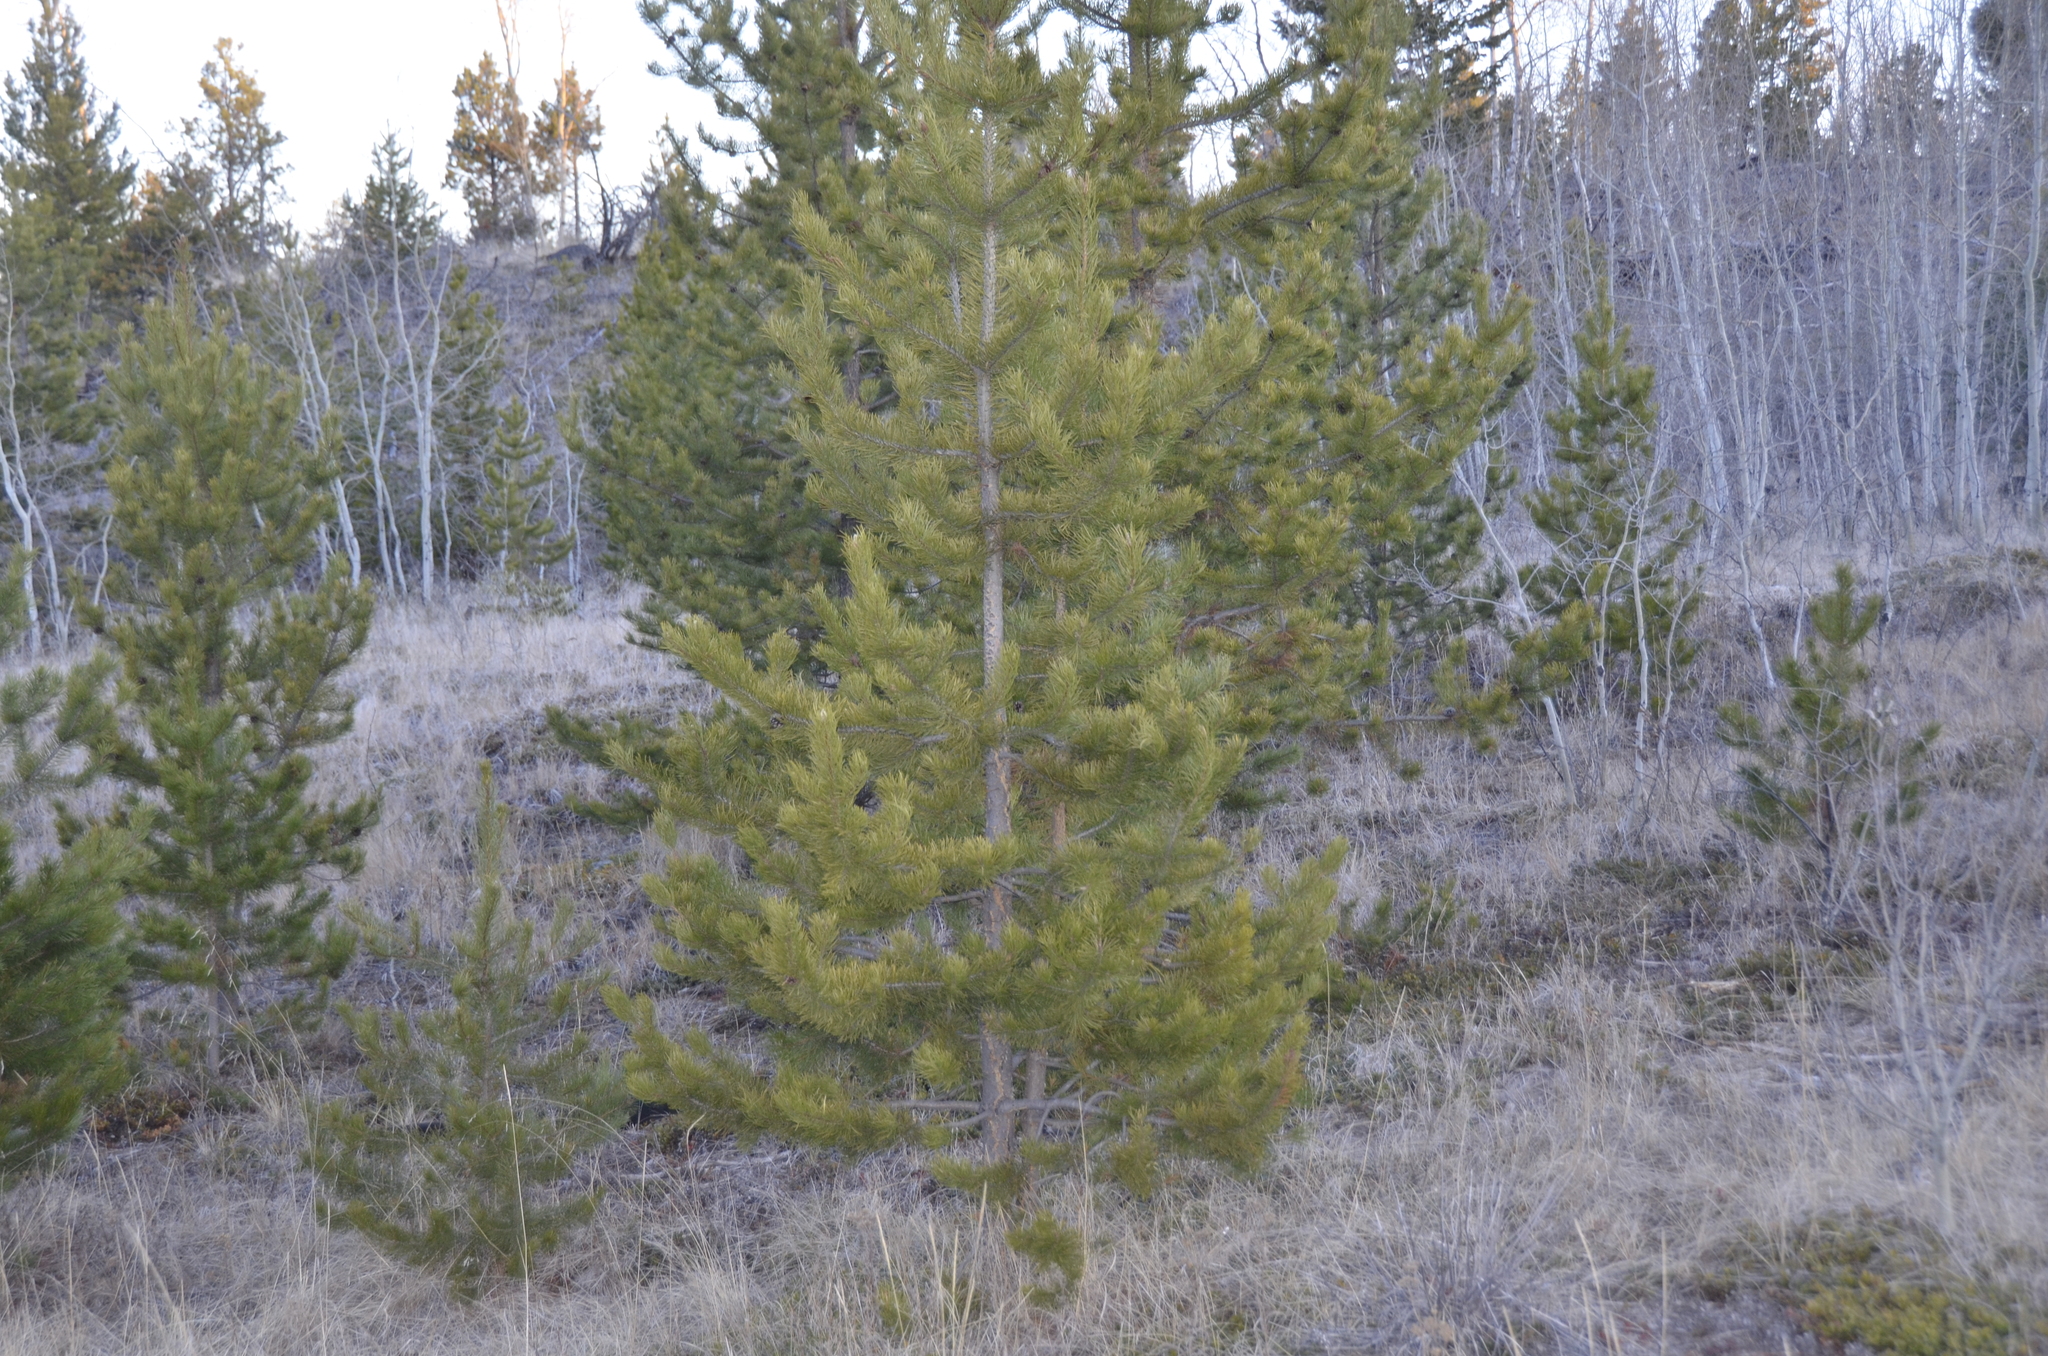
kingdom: Plantae
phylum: Tracheophyta
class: Pinopsida
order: Pinales
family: Pinaceae
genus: Pinus
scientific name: Pinus contorta
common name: Lodgepole pine
